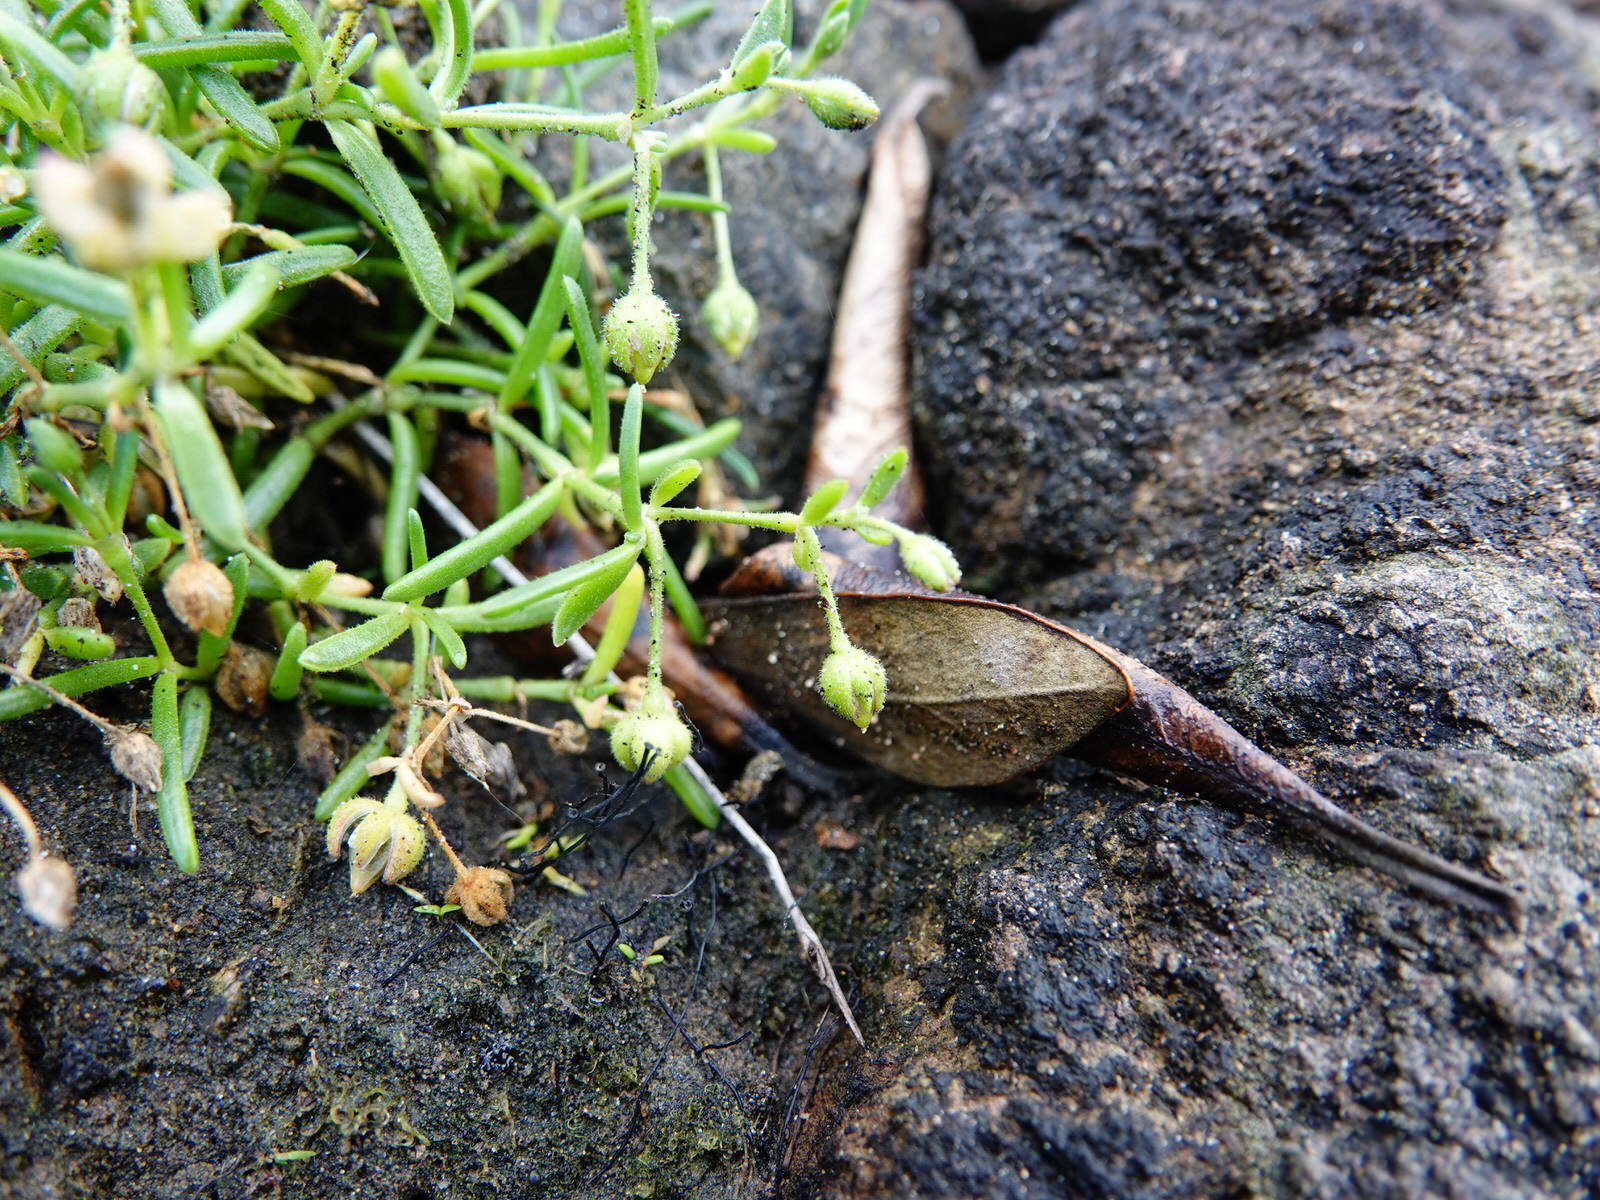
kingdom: Plantae
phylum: Tracheophyta
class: Magnoliopsida
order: Caryophyllales
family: Caryophyllaceae
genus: Spergularia
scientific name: Spergularia tasmanica
